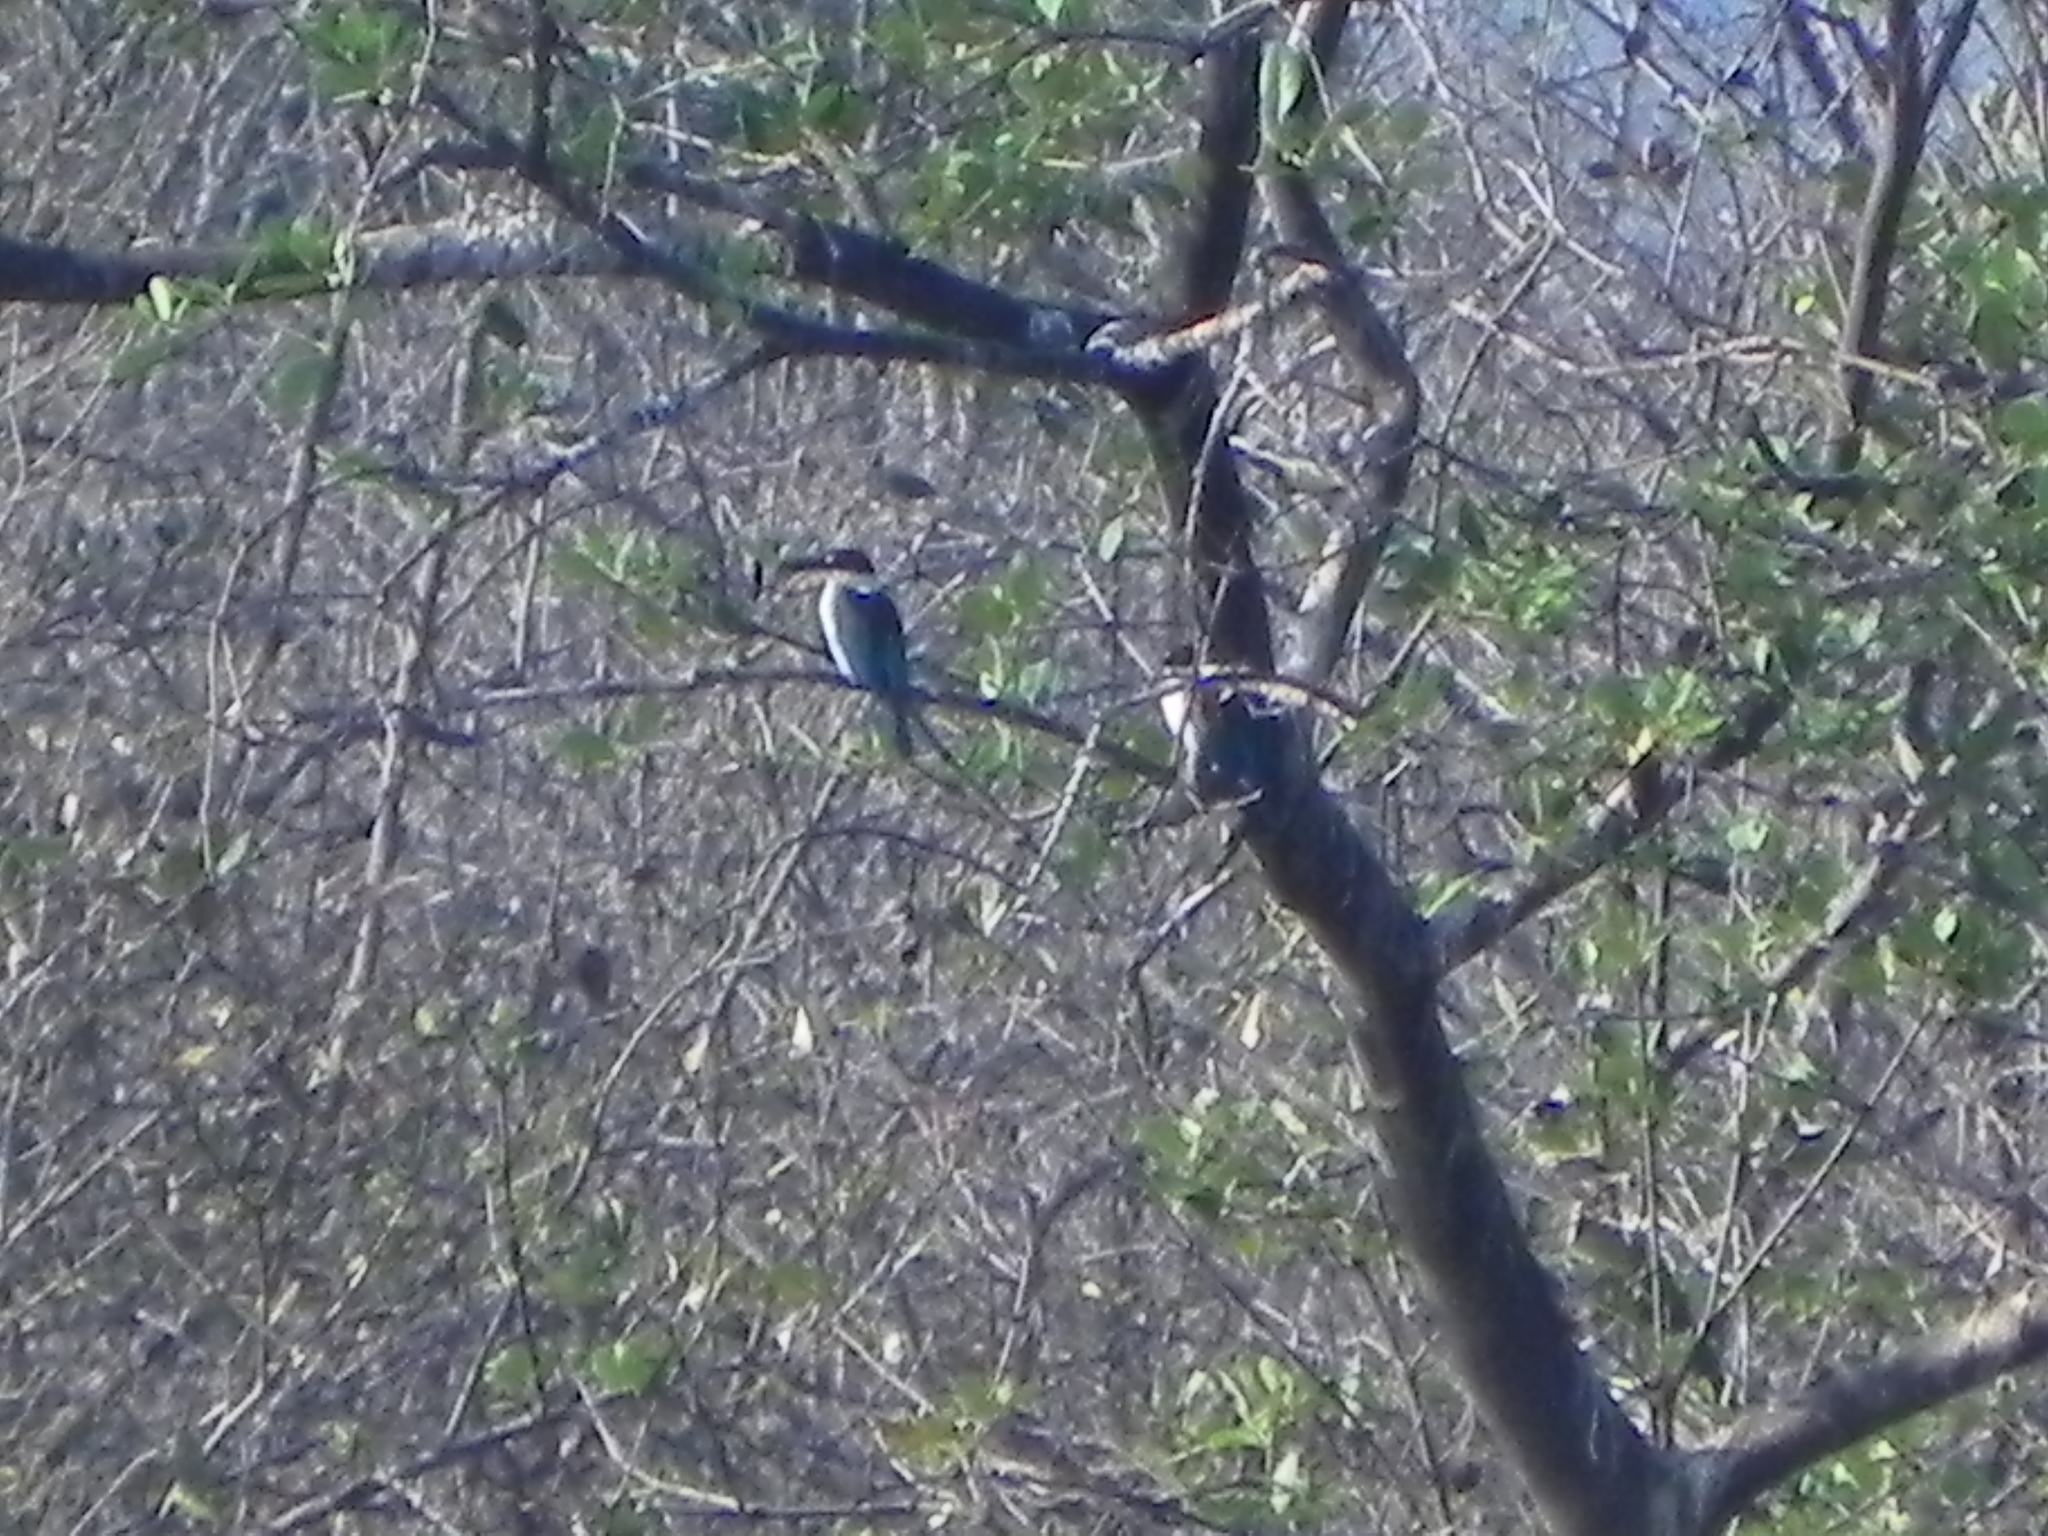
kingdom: Animalia
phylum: Chordata
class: Aves
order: Coraciiformes
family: Alcedinidae
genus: Todiramphus
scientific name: Todiramphus chloris
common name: Collared kingfisher
